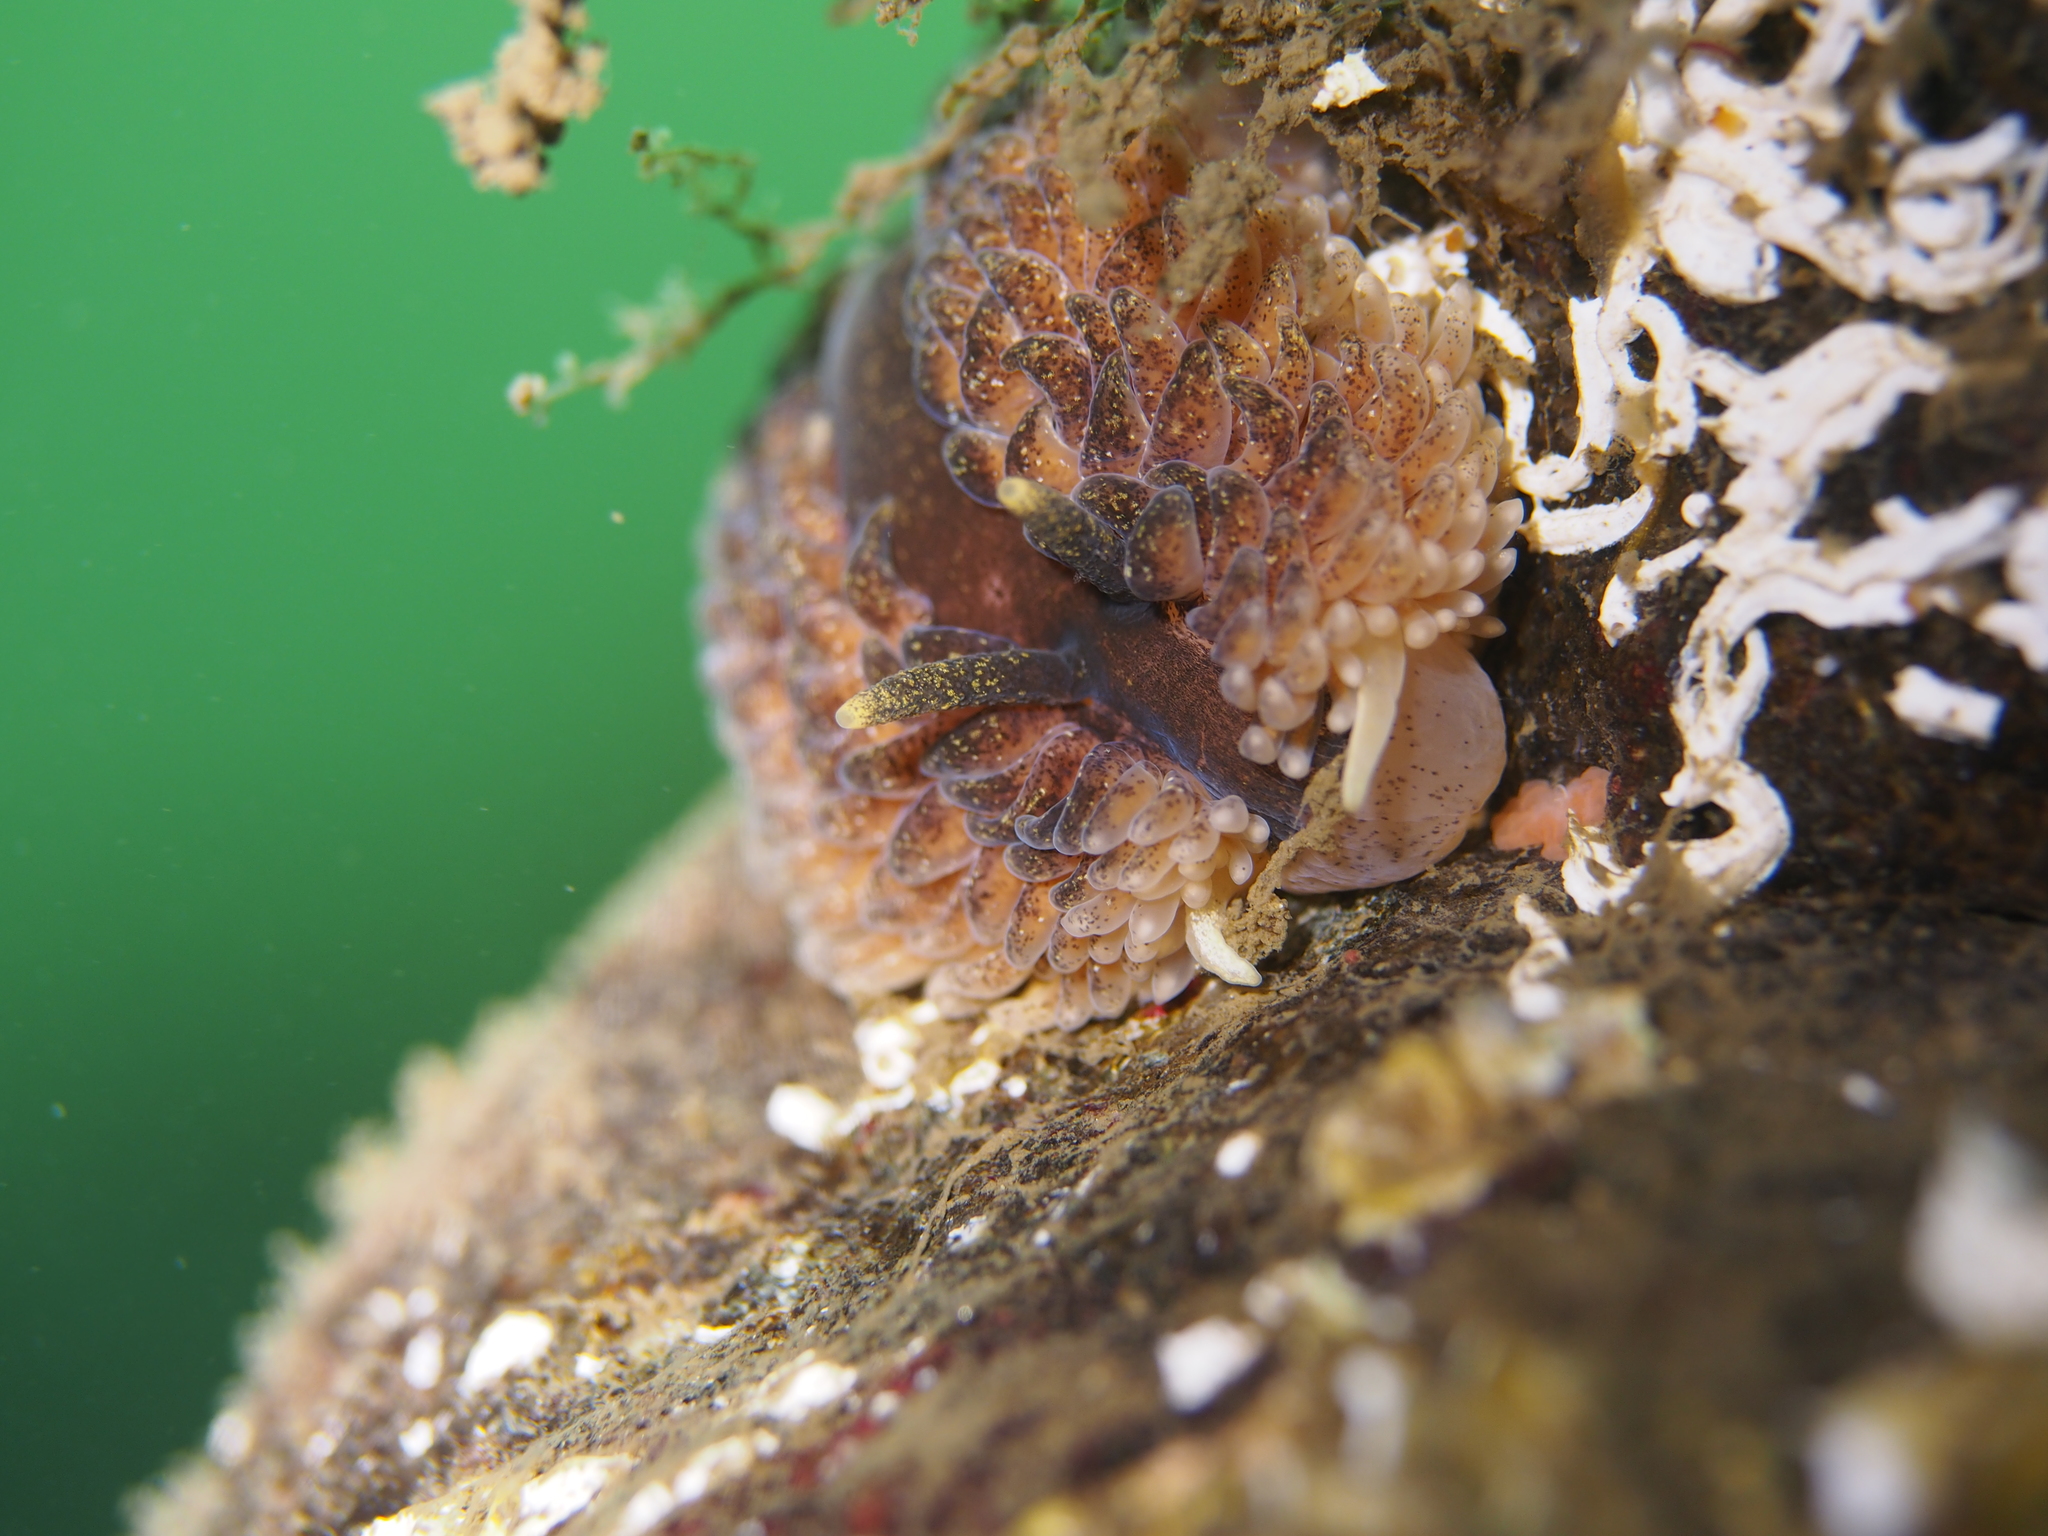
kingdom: Animalia
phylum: Mollusca
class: Gastropoda
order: Nudibranchia
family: Aeolidiidae
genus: Aeolidia
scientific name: Aeolidia papillosa
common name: Common grey sea slug
